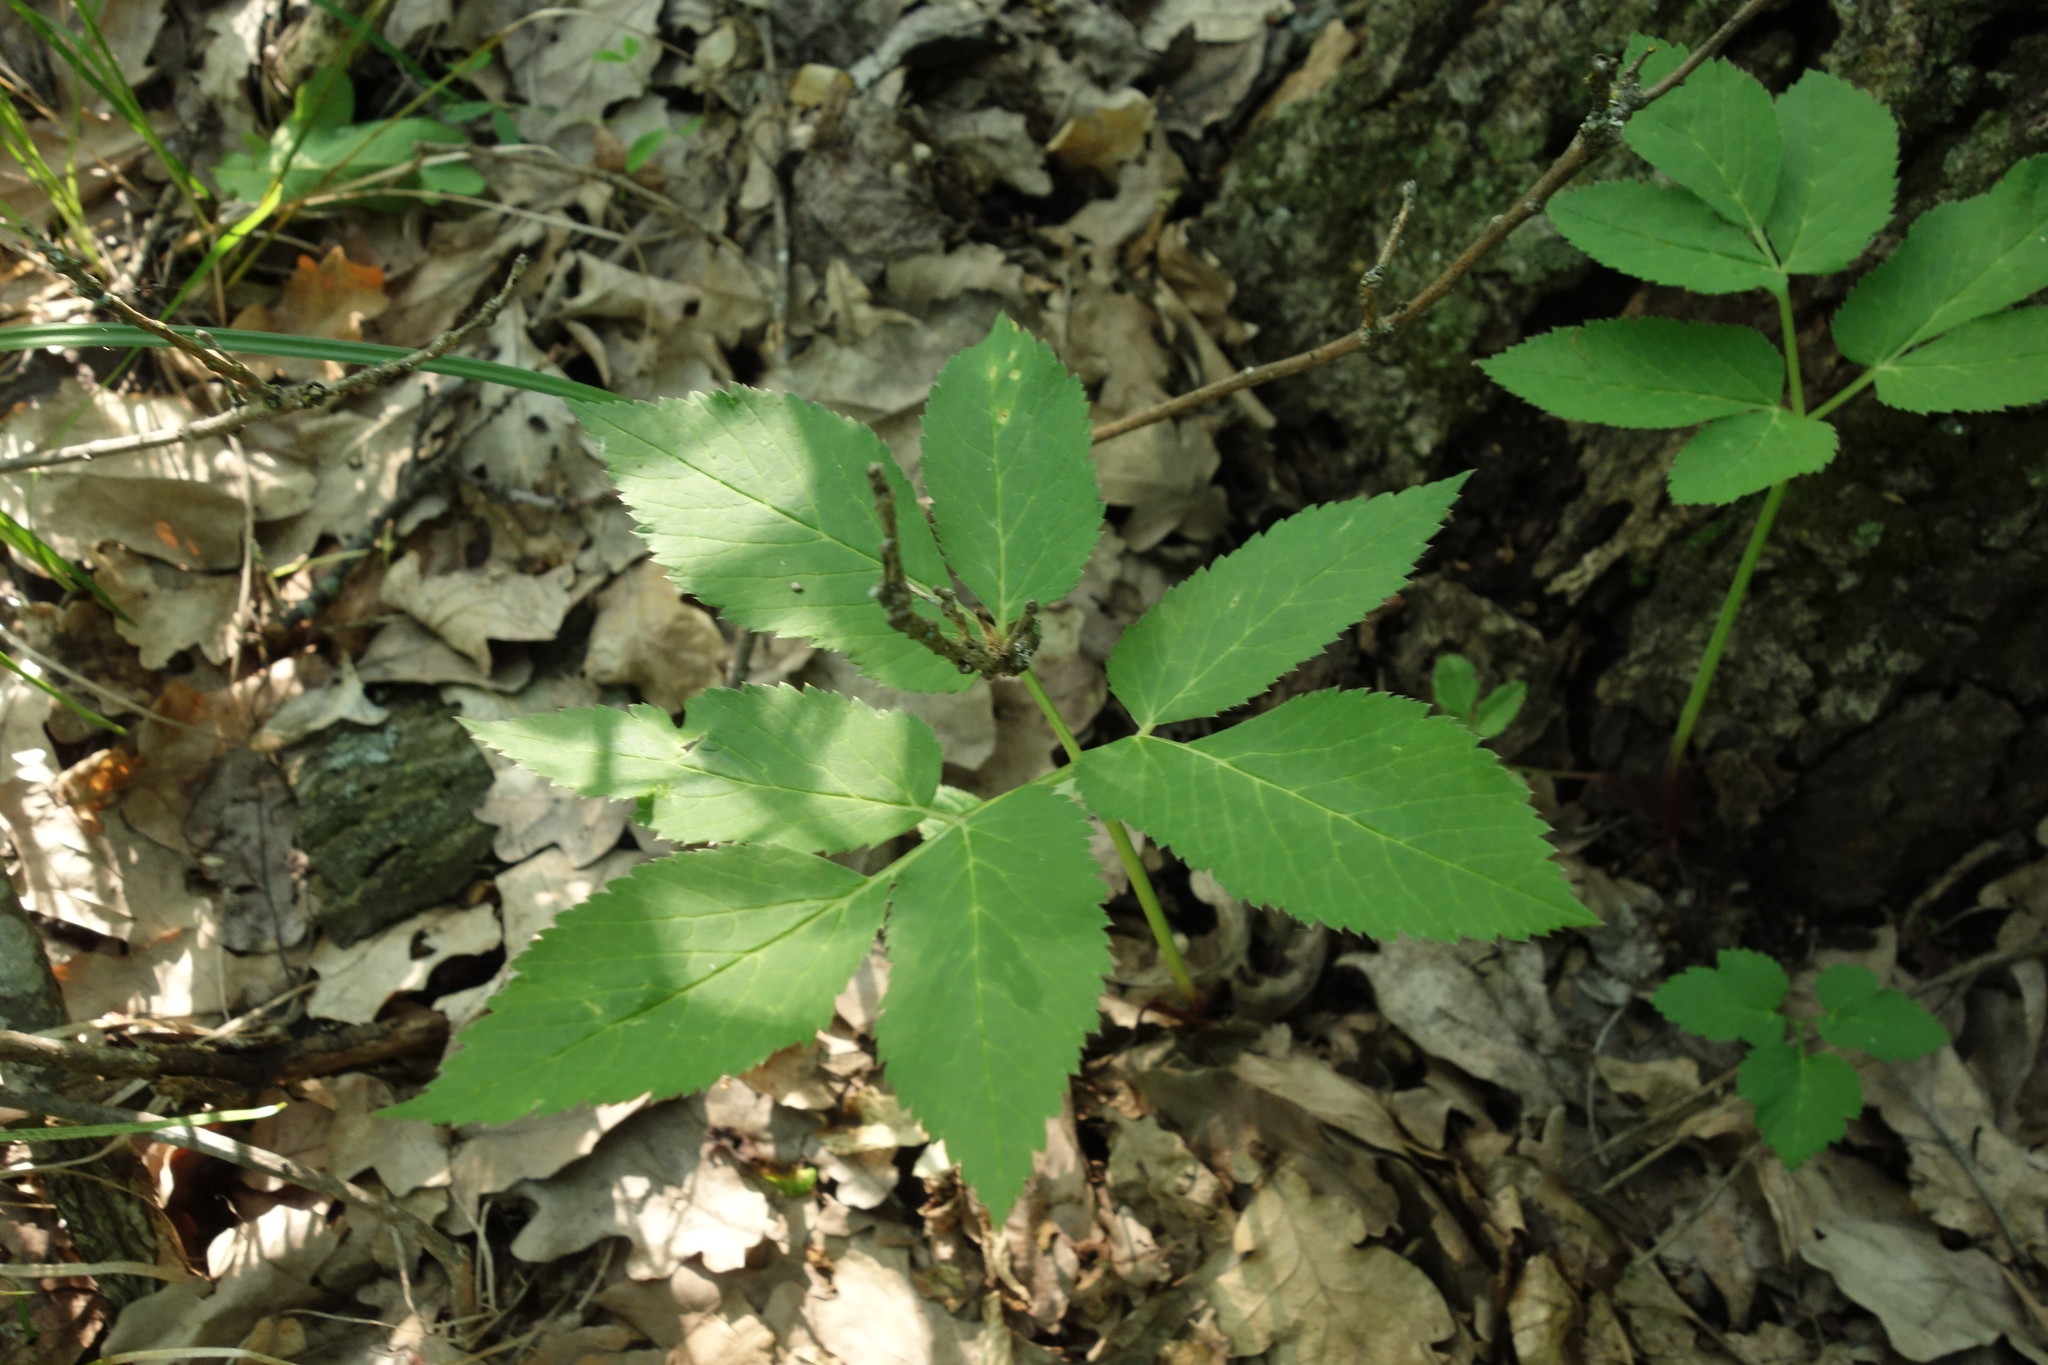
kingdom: Plantae
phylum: Tracheophyta
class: Magnoliopsida
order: Apiales
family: Apiaceae
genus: Aegopodium
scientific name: Aegopodium podagraria
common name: Ground-elder
